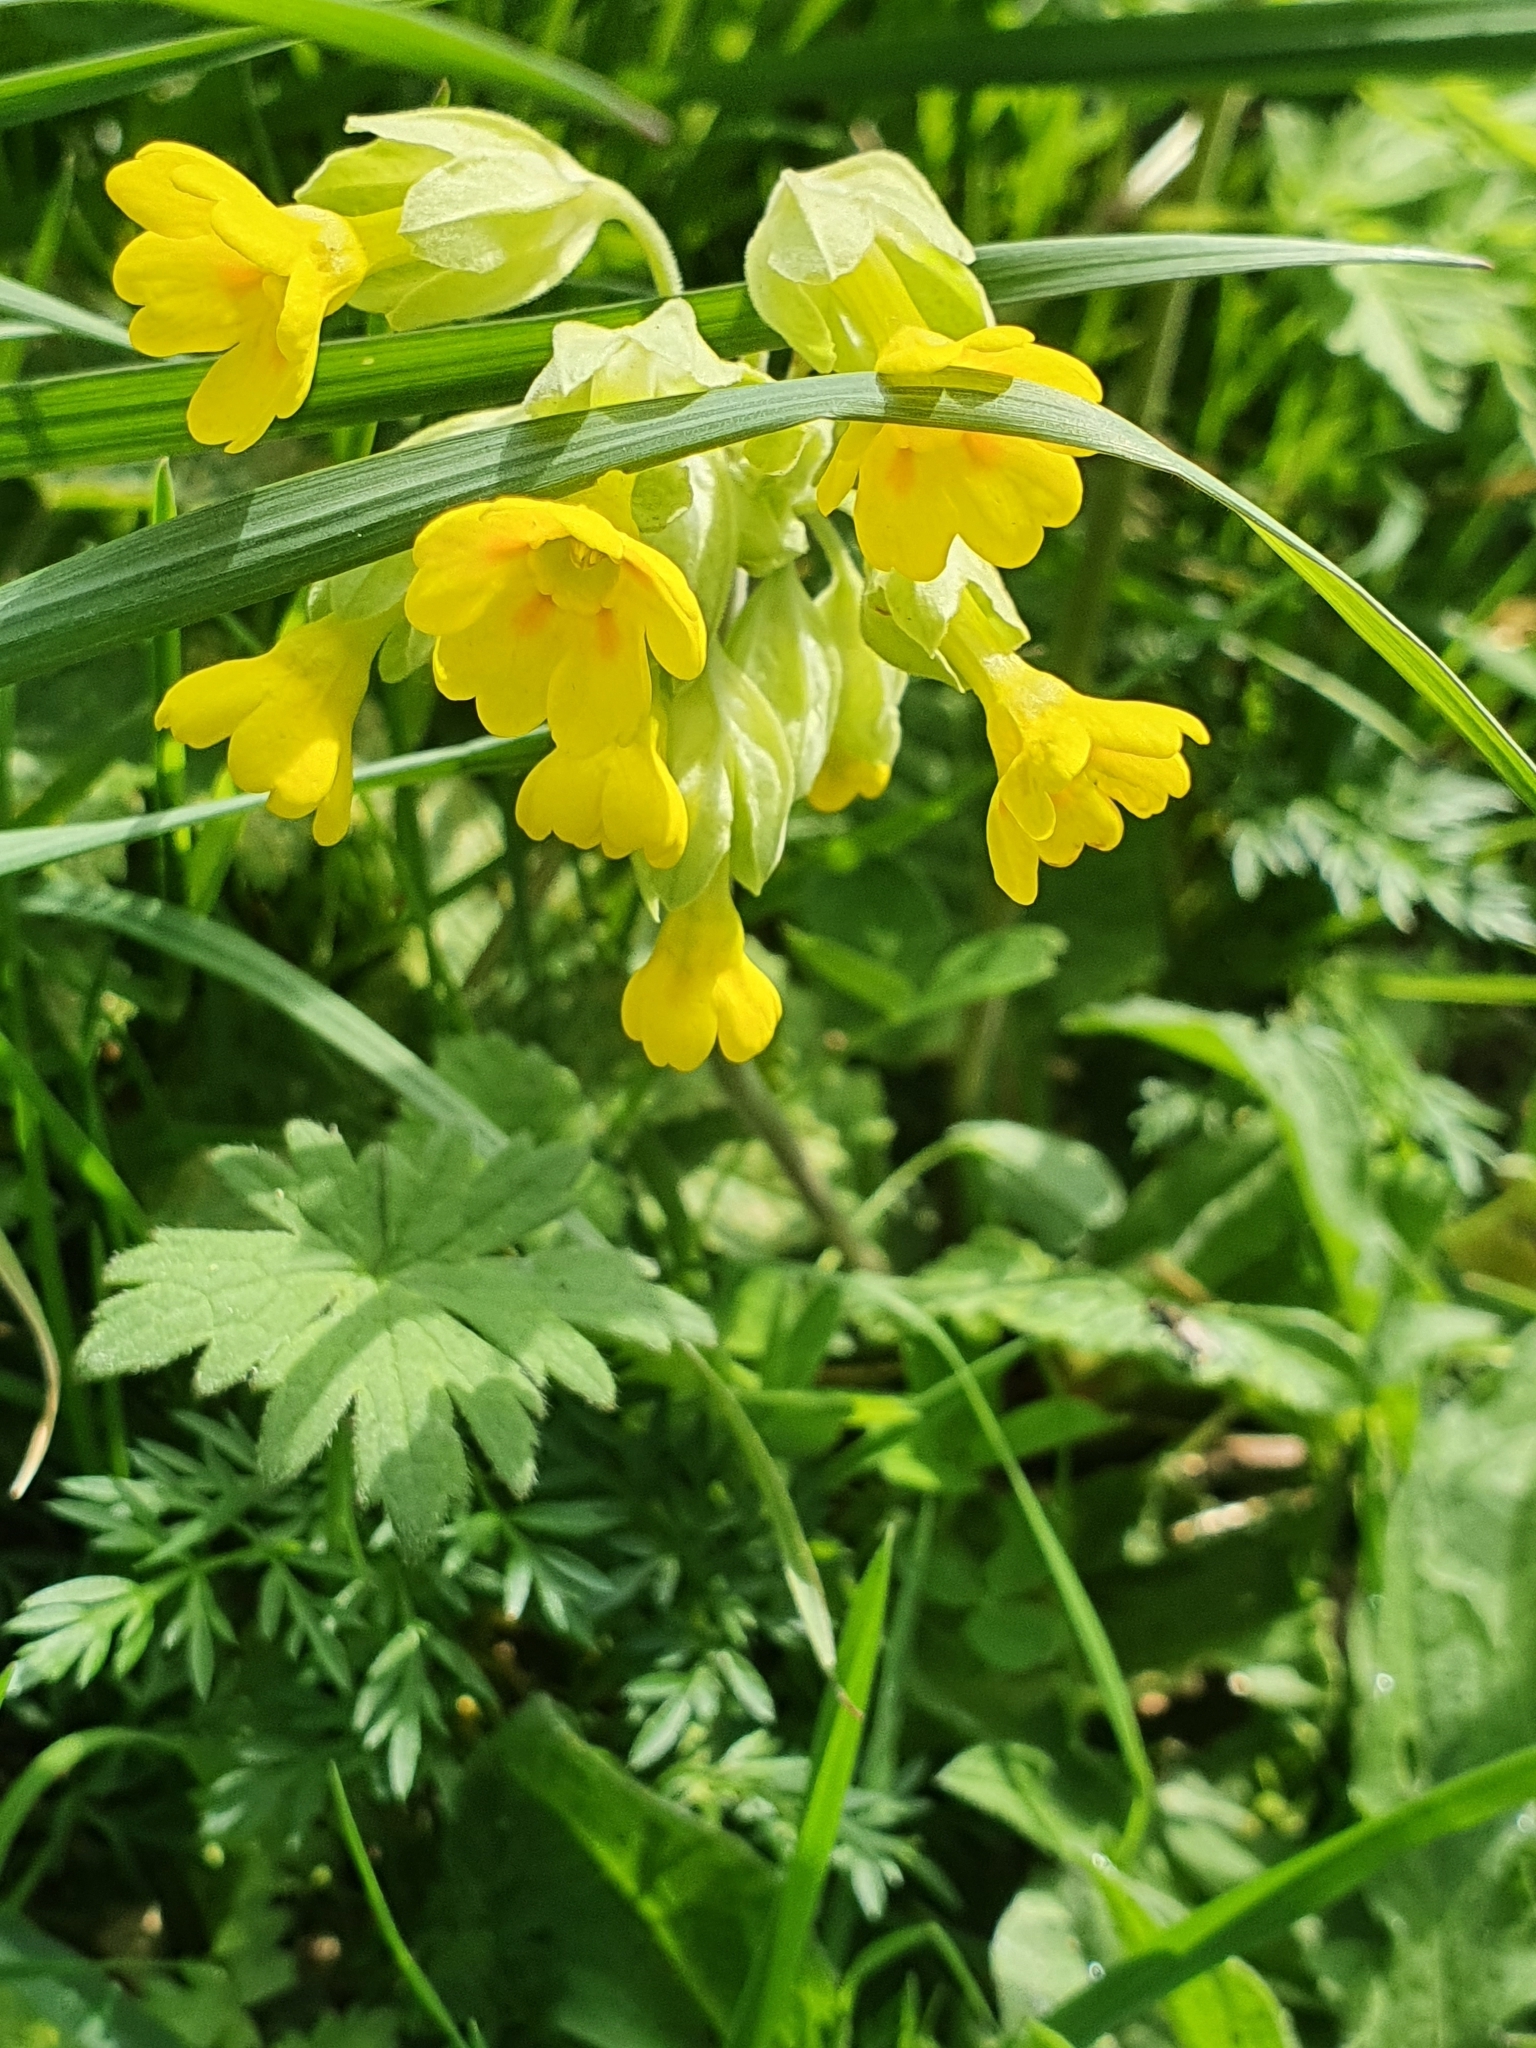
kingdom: Plantae
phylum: Tracheophyta
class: Magnoliopsida
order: Ericales
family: Primulaceae
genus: Primula
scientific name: Primula veris
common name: Cowslip
